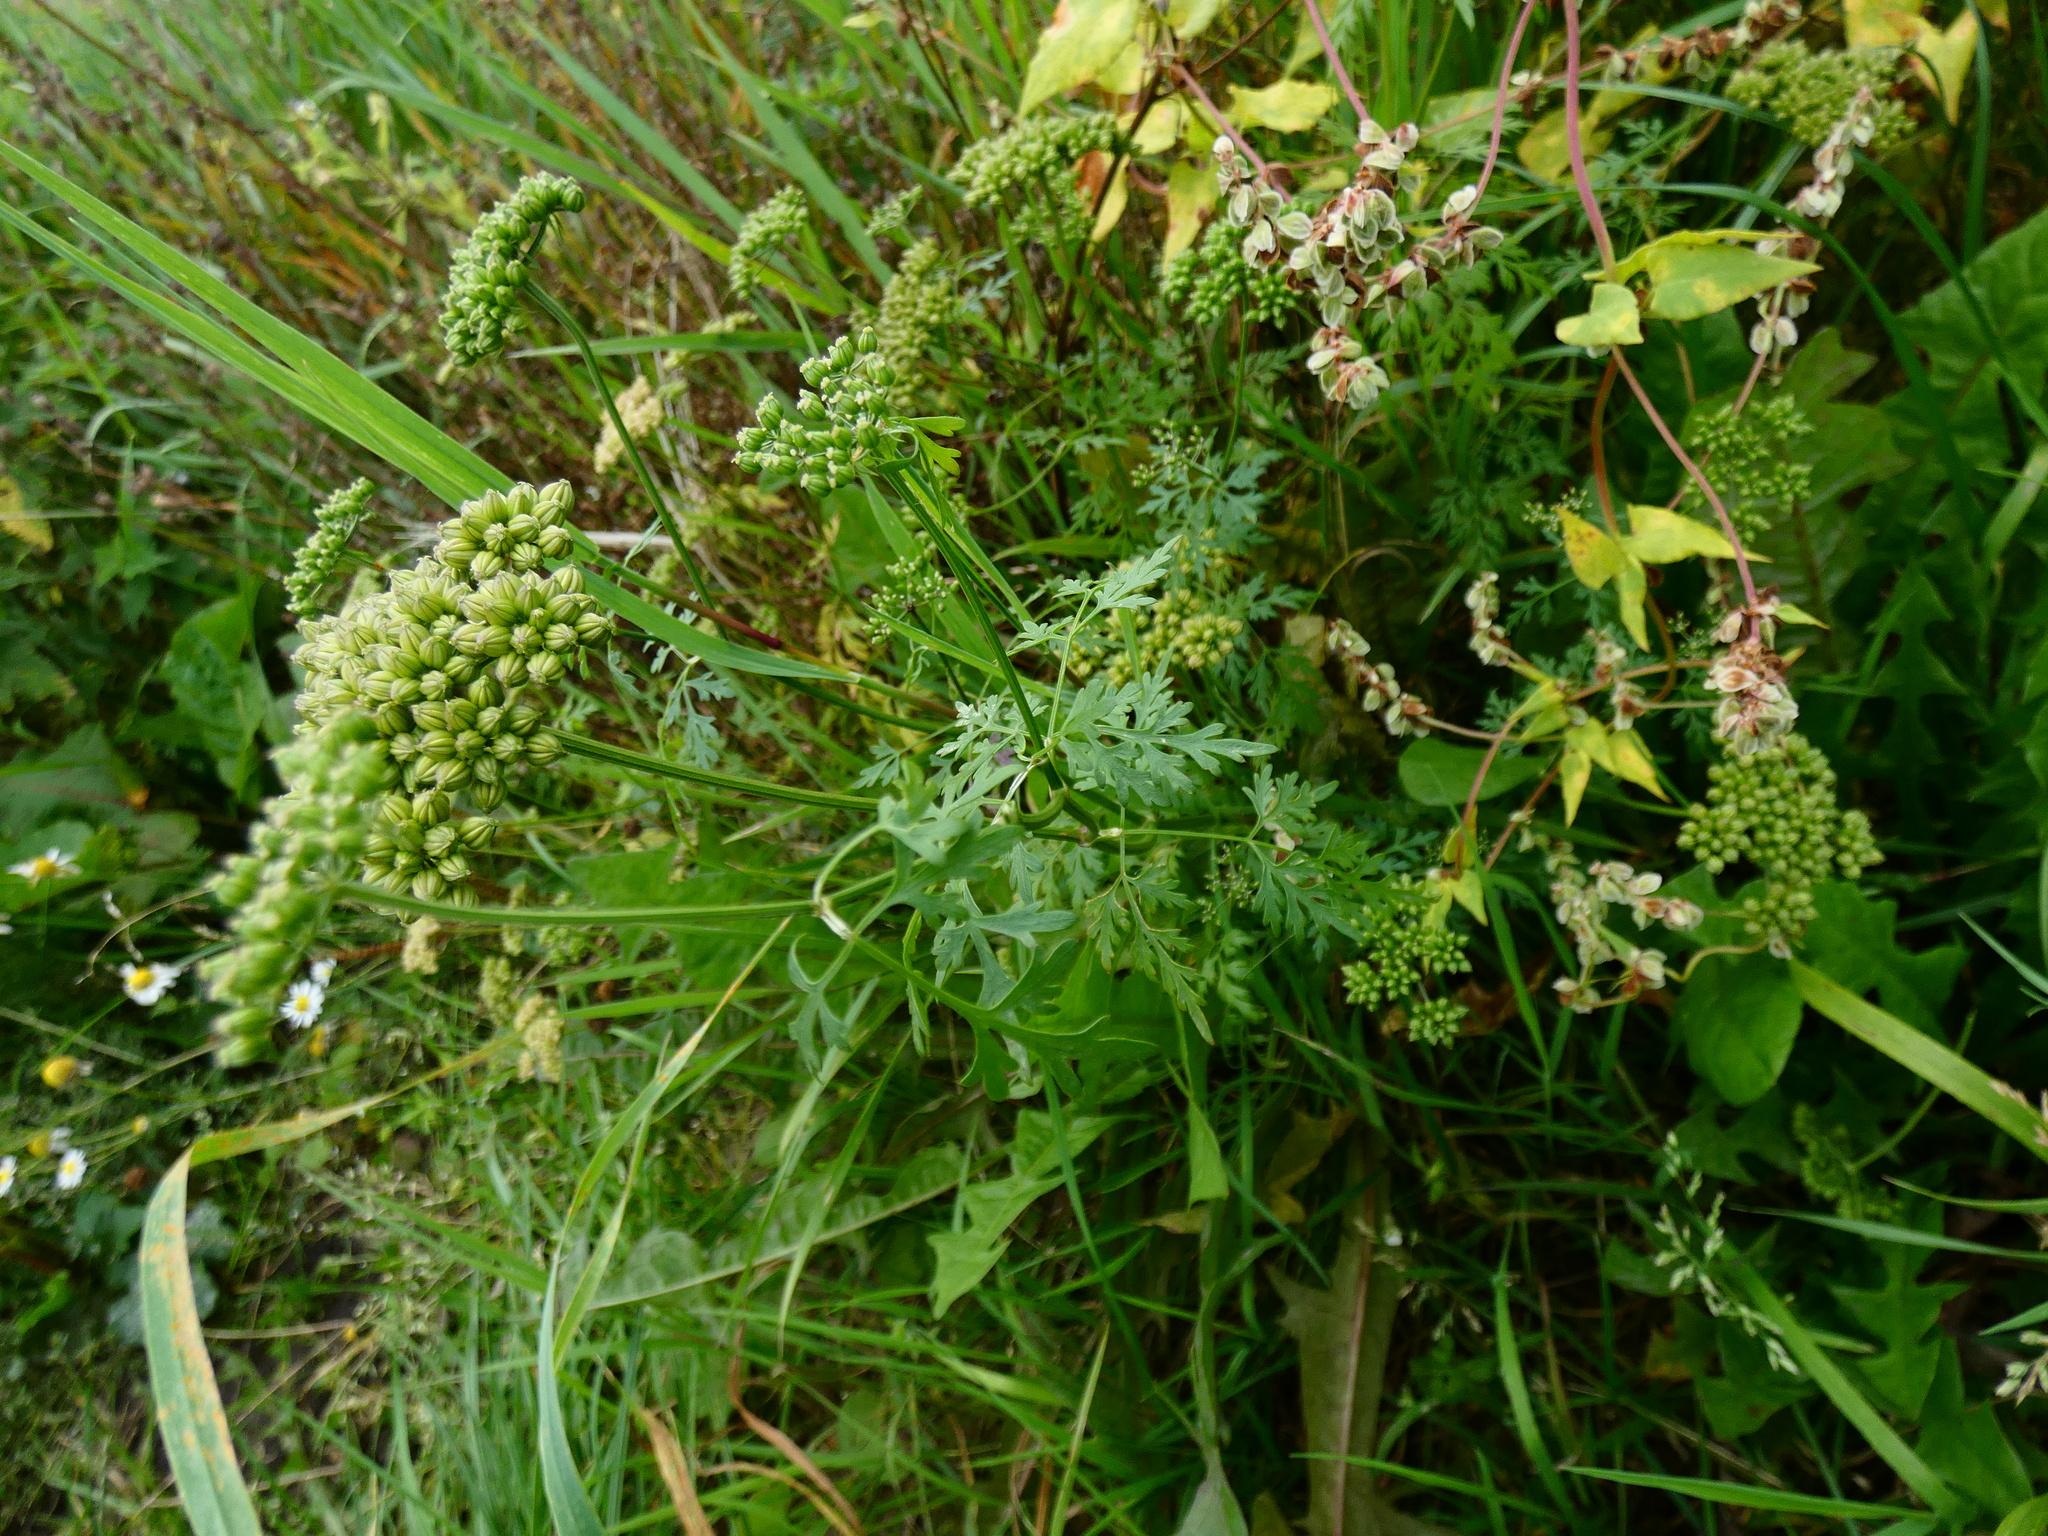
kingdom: Plantae
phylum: Tracheophyta
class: Magnoliopsida
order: Apiales
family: Apiaceae
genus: Aethusa
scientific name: Aethusa cynapium
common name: Fool's parsley
